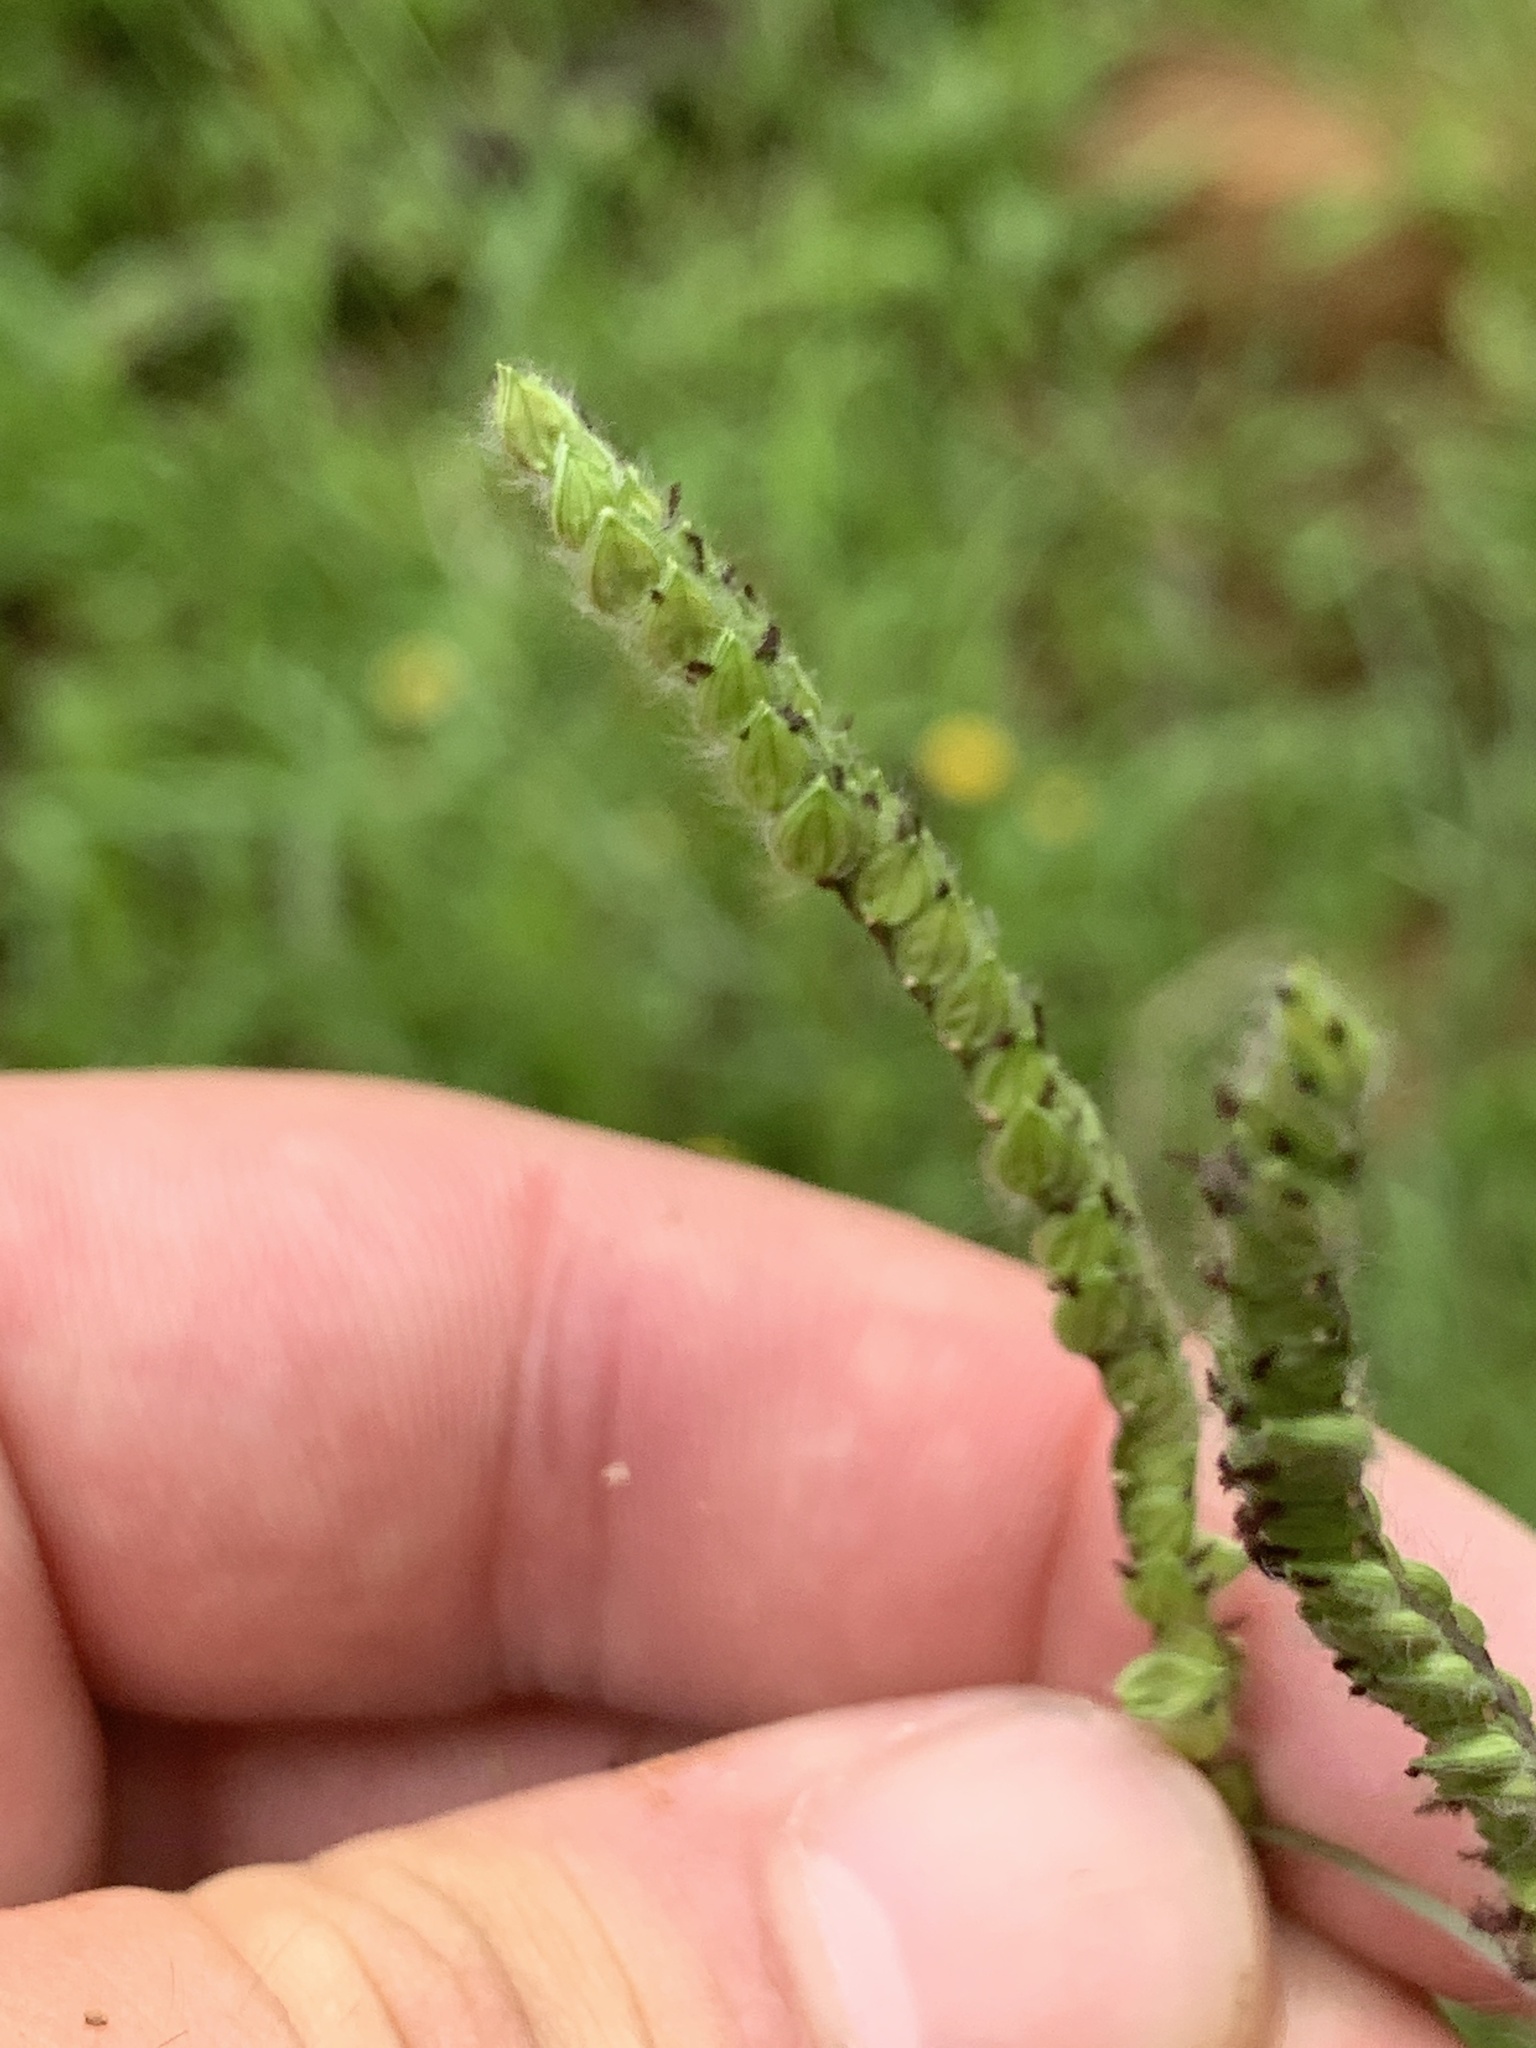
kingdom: Plantae
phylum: Tracheophyta
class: Liliopsida
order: Poales
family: Poaceae
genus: Paspalum
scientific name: Paspalum dilatatum
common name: Dallisgrass
